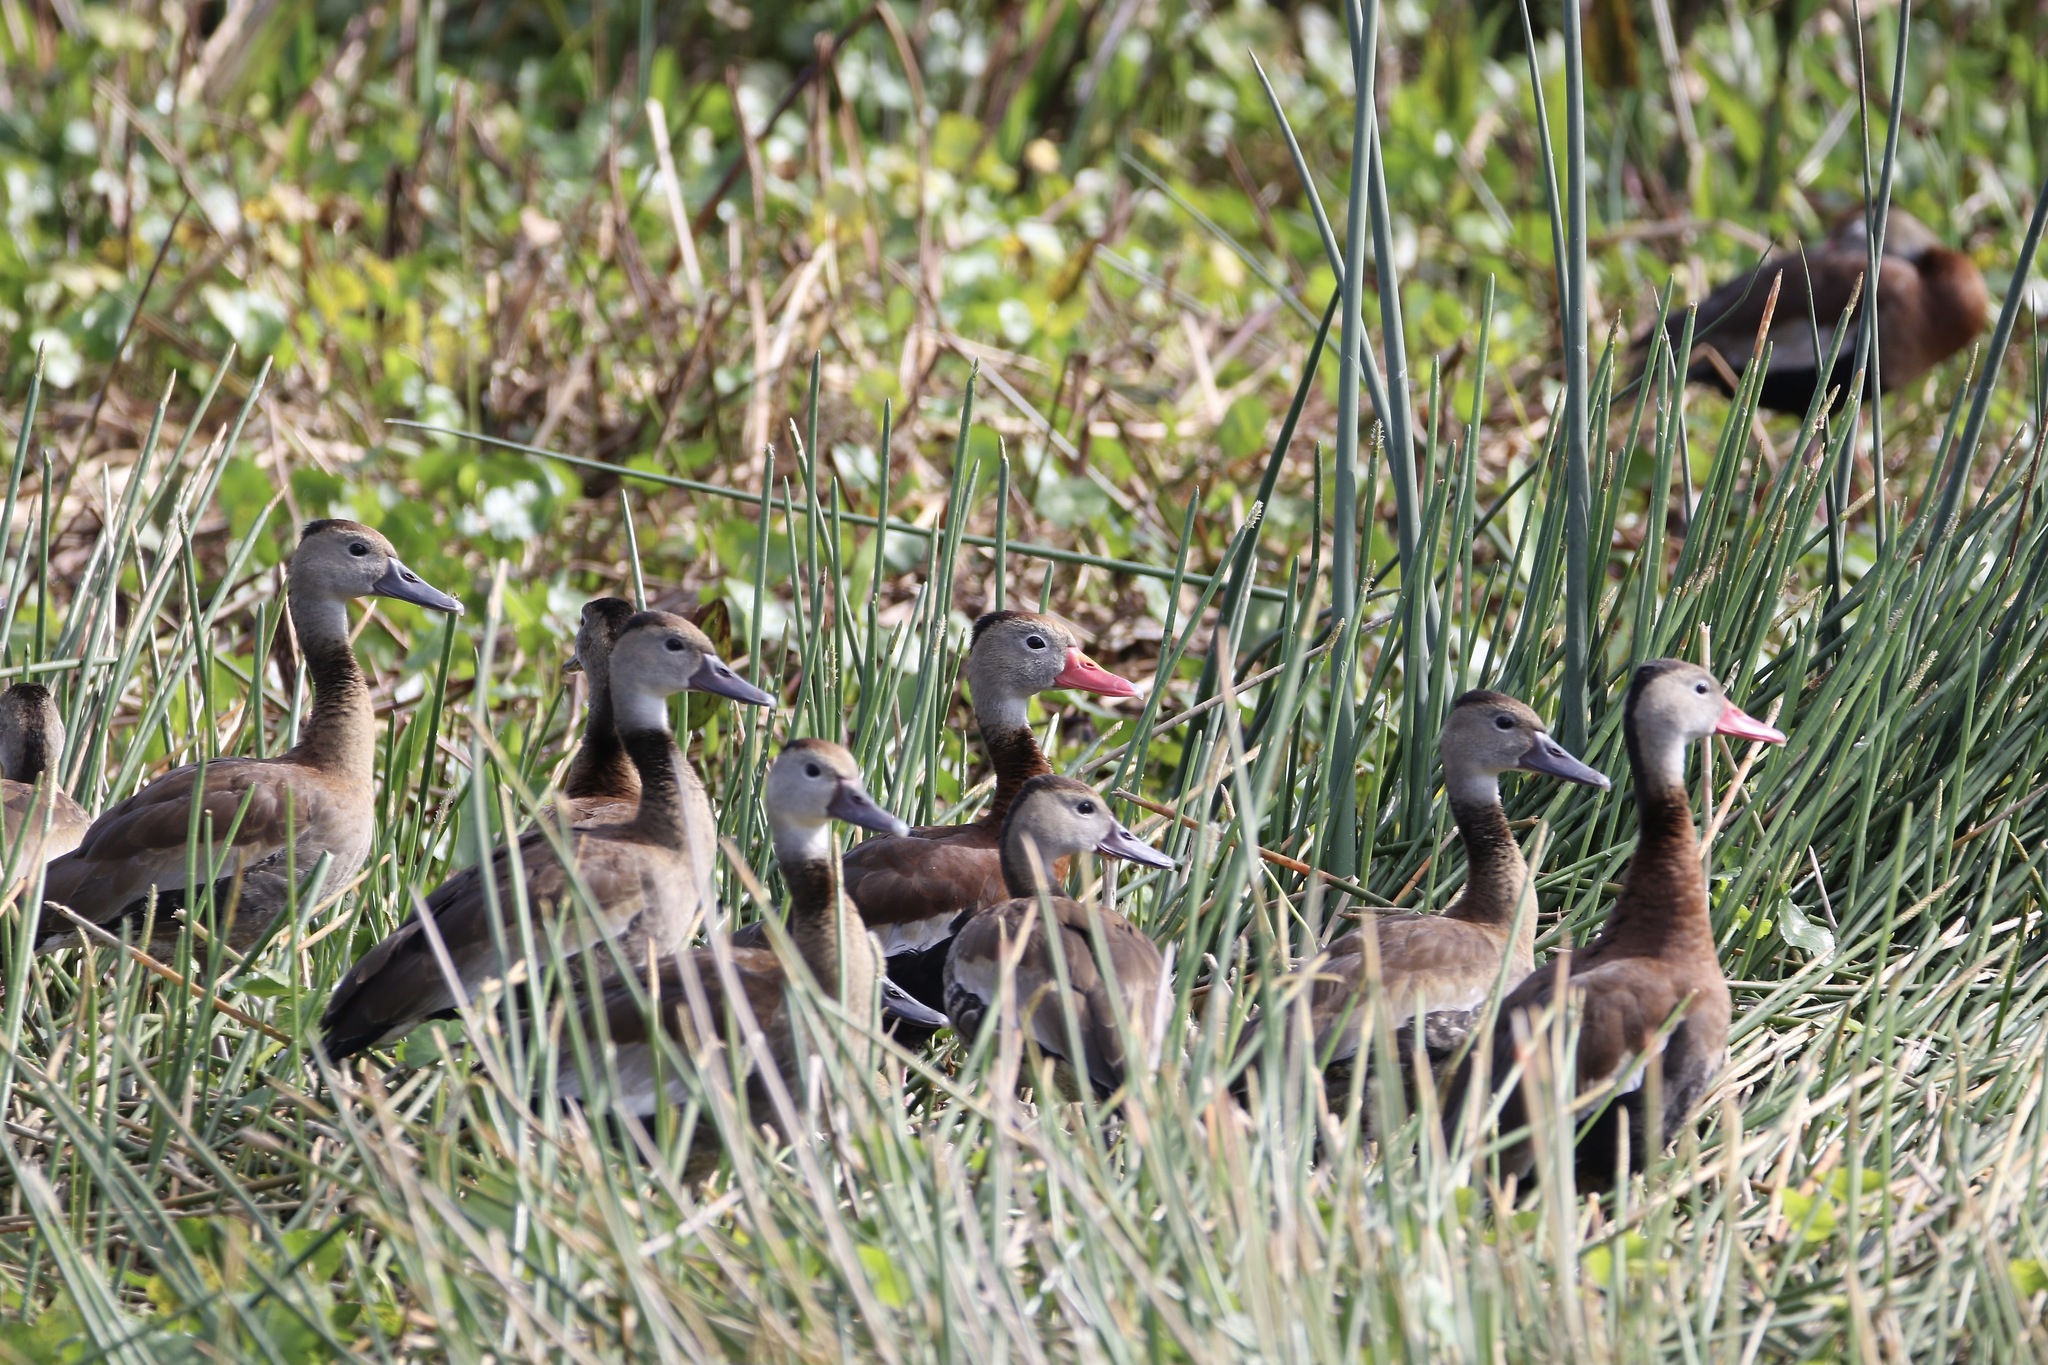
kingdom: Animalia
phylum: Chordata
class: Aves
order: Anseriformes
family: Anatidae
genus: Dendrocygna
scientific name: Dendrocygna autumnalis
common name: Black-bellied whistling duck
